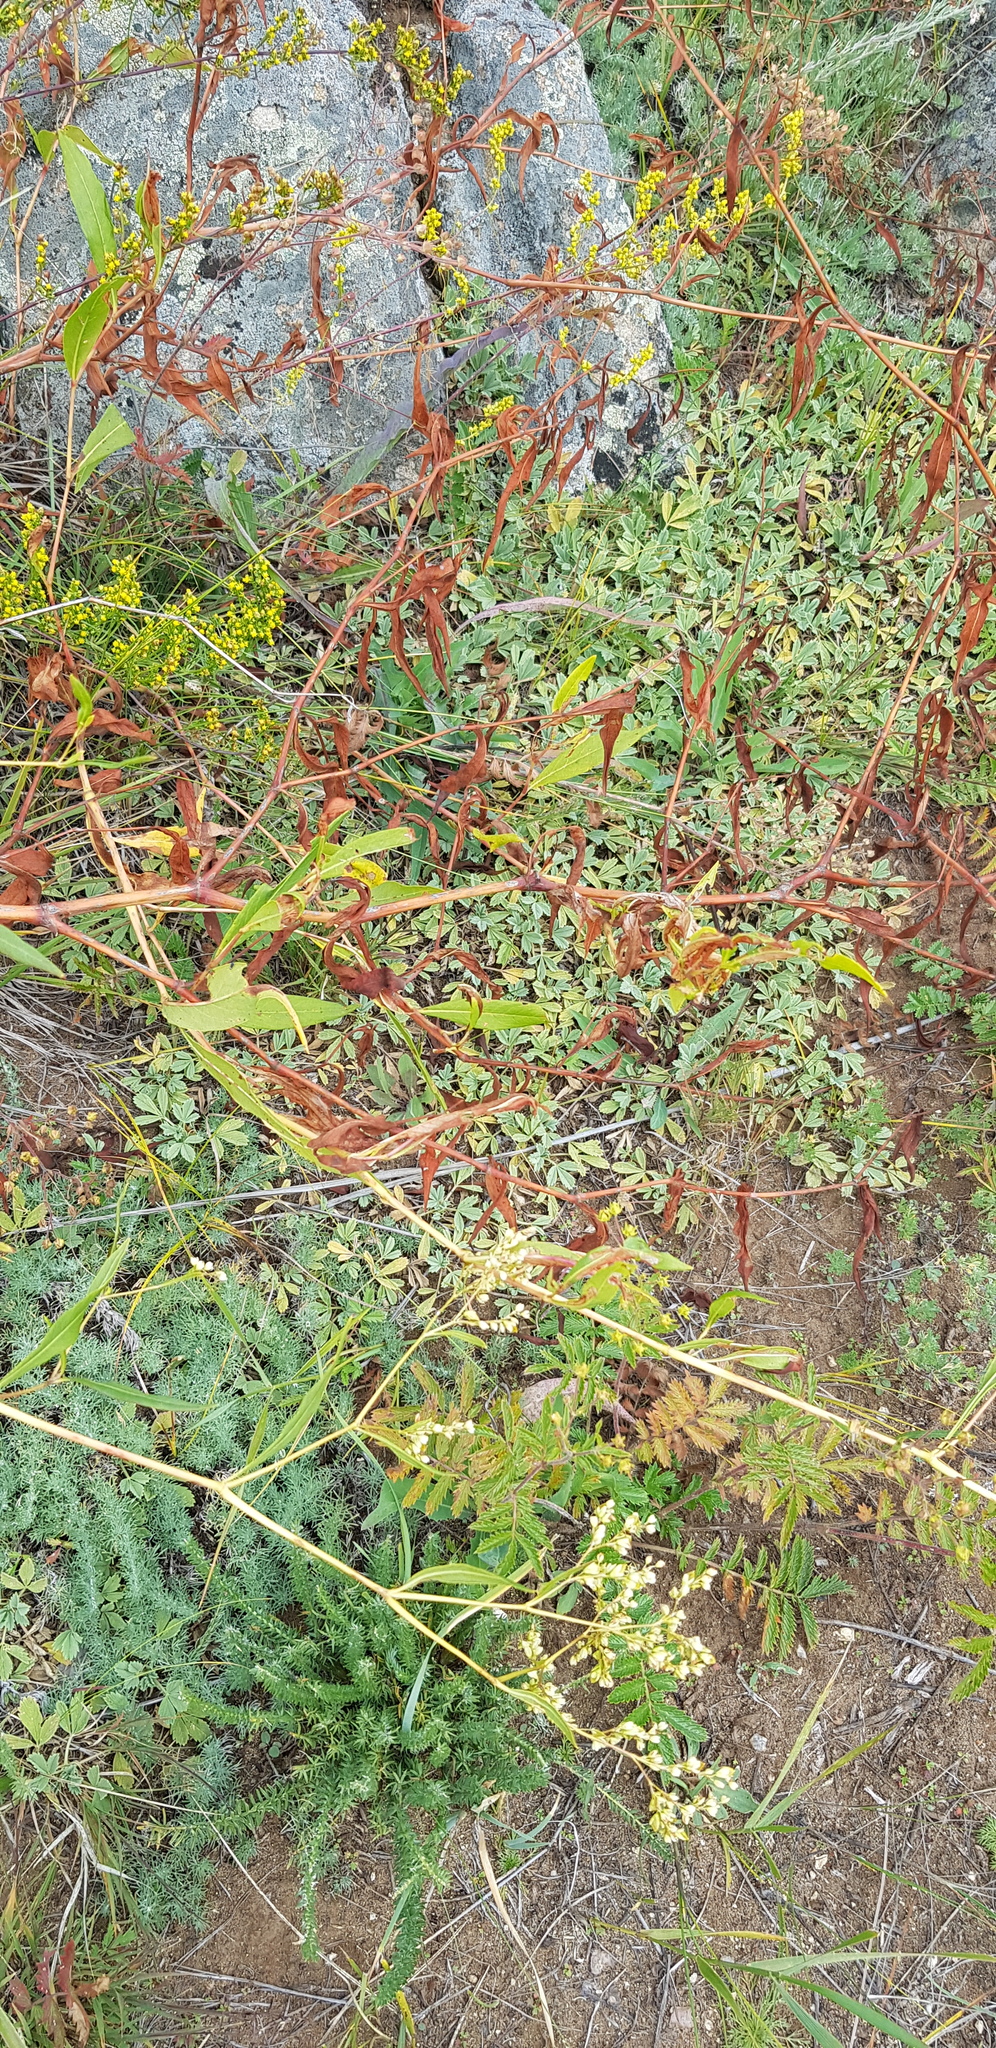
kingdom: Plantae
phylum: Tracheophyta
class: Magnoliopsida
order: Caryophyllales
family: Polygonaceae
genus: Koenigia
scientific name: Koenigia divaricata
